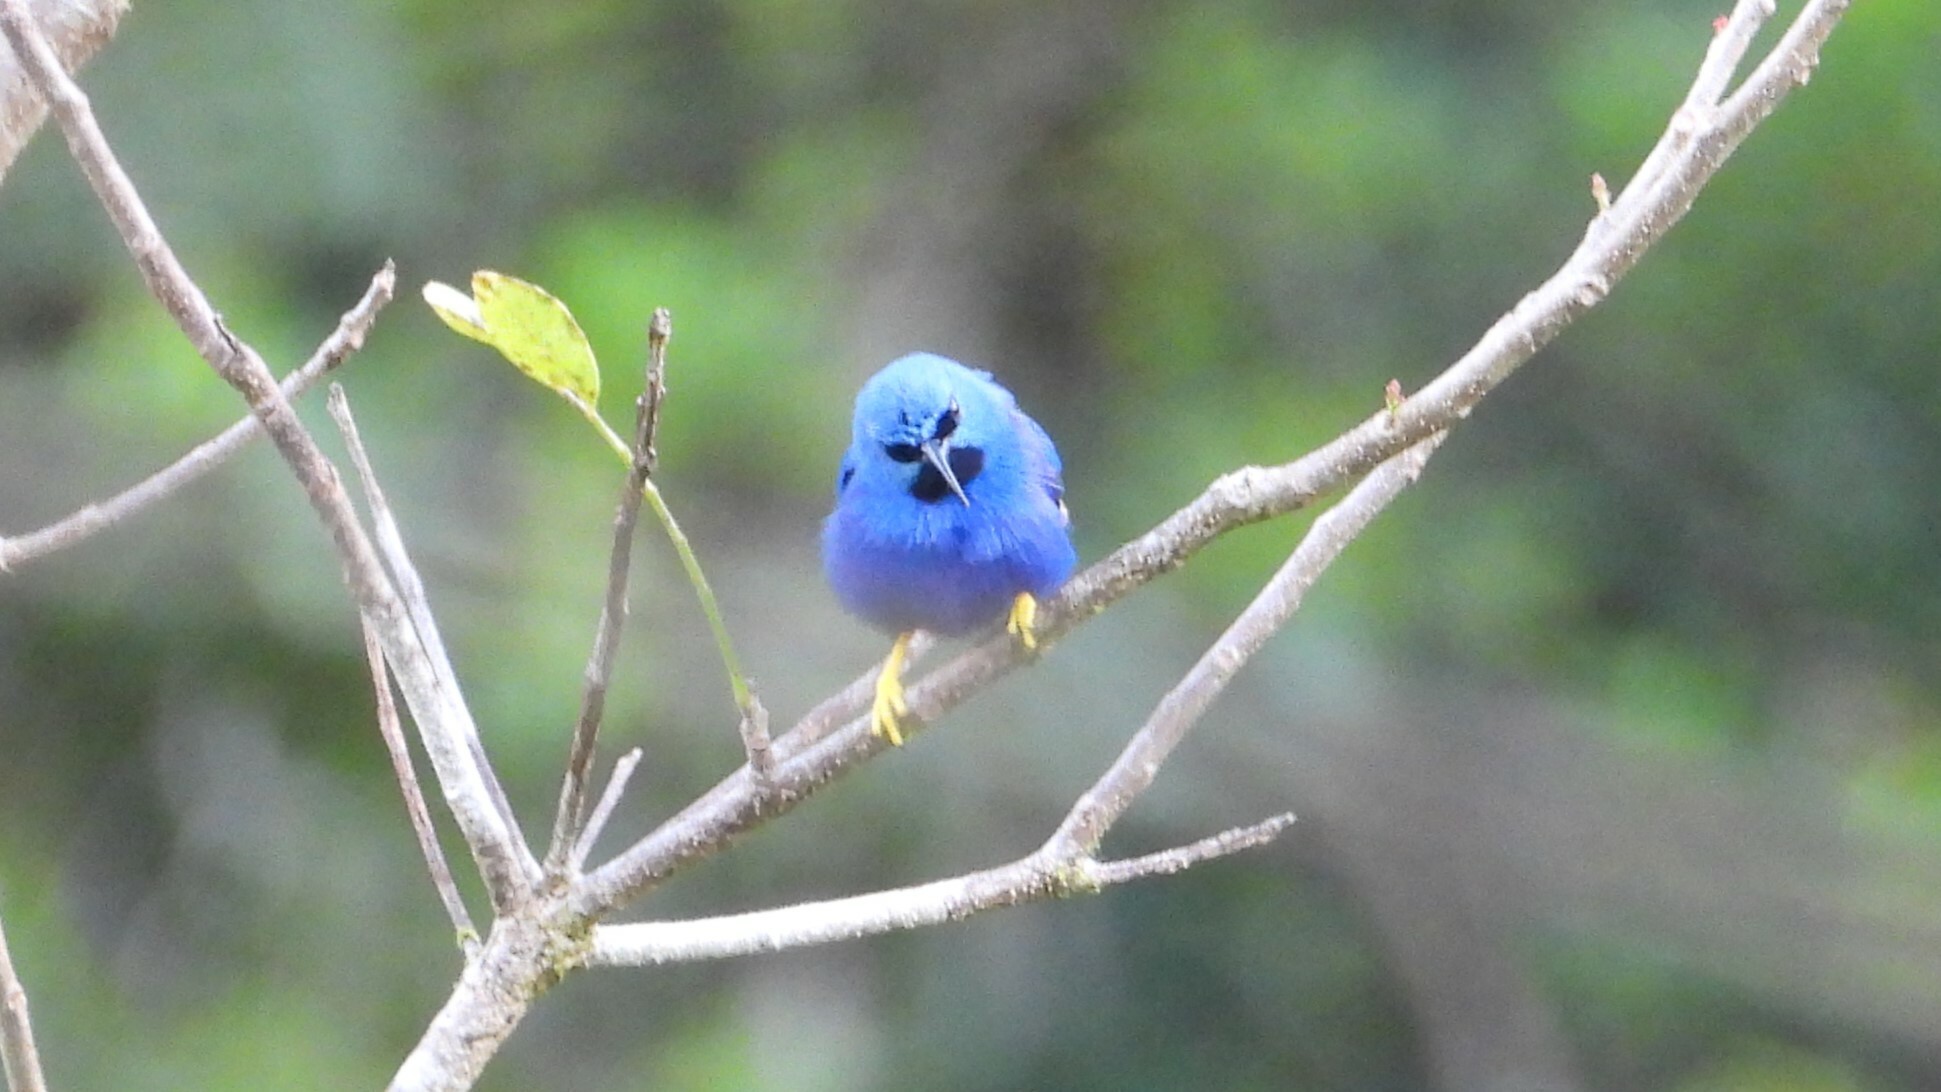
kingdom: Animalia
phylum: Chordata
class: Aves
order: Passeriformes
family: Thraupidae
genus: Cyanerpes
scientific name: Cyanerpes lucidus
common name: Shining honeycreeper
